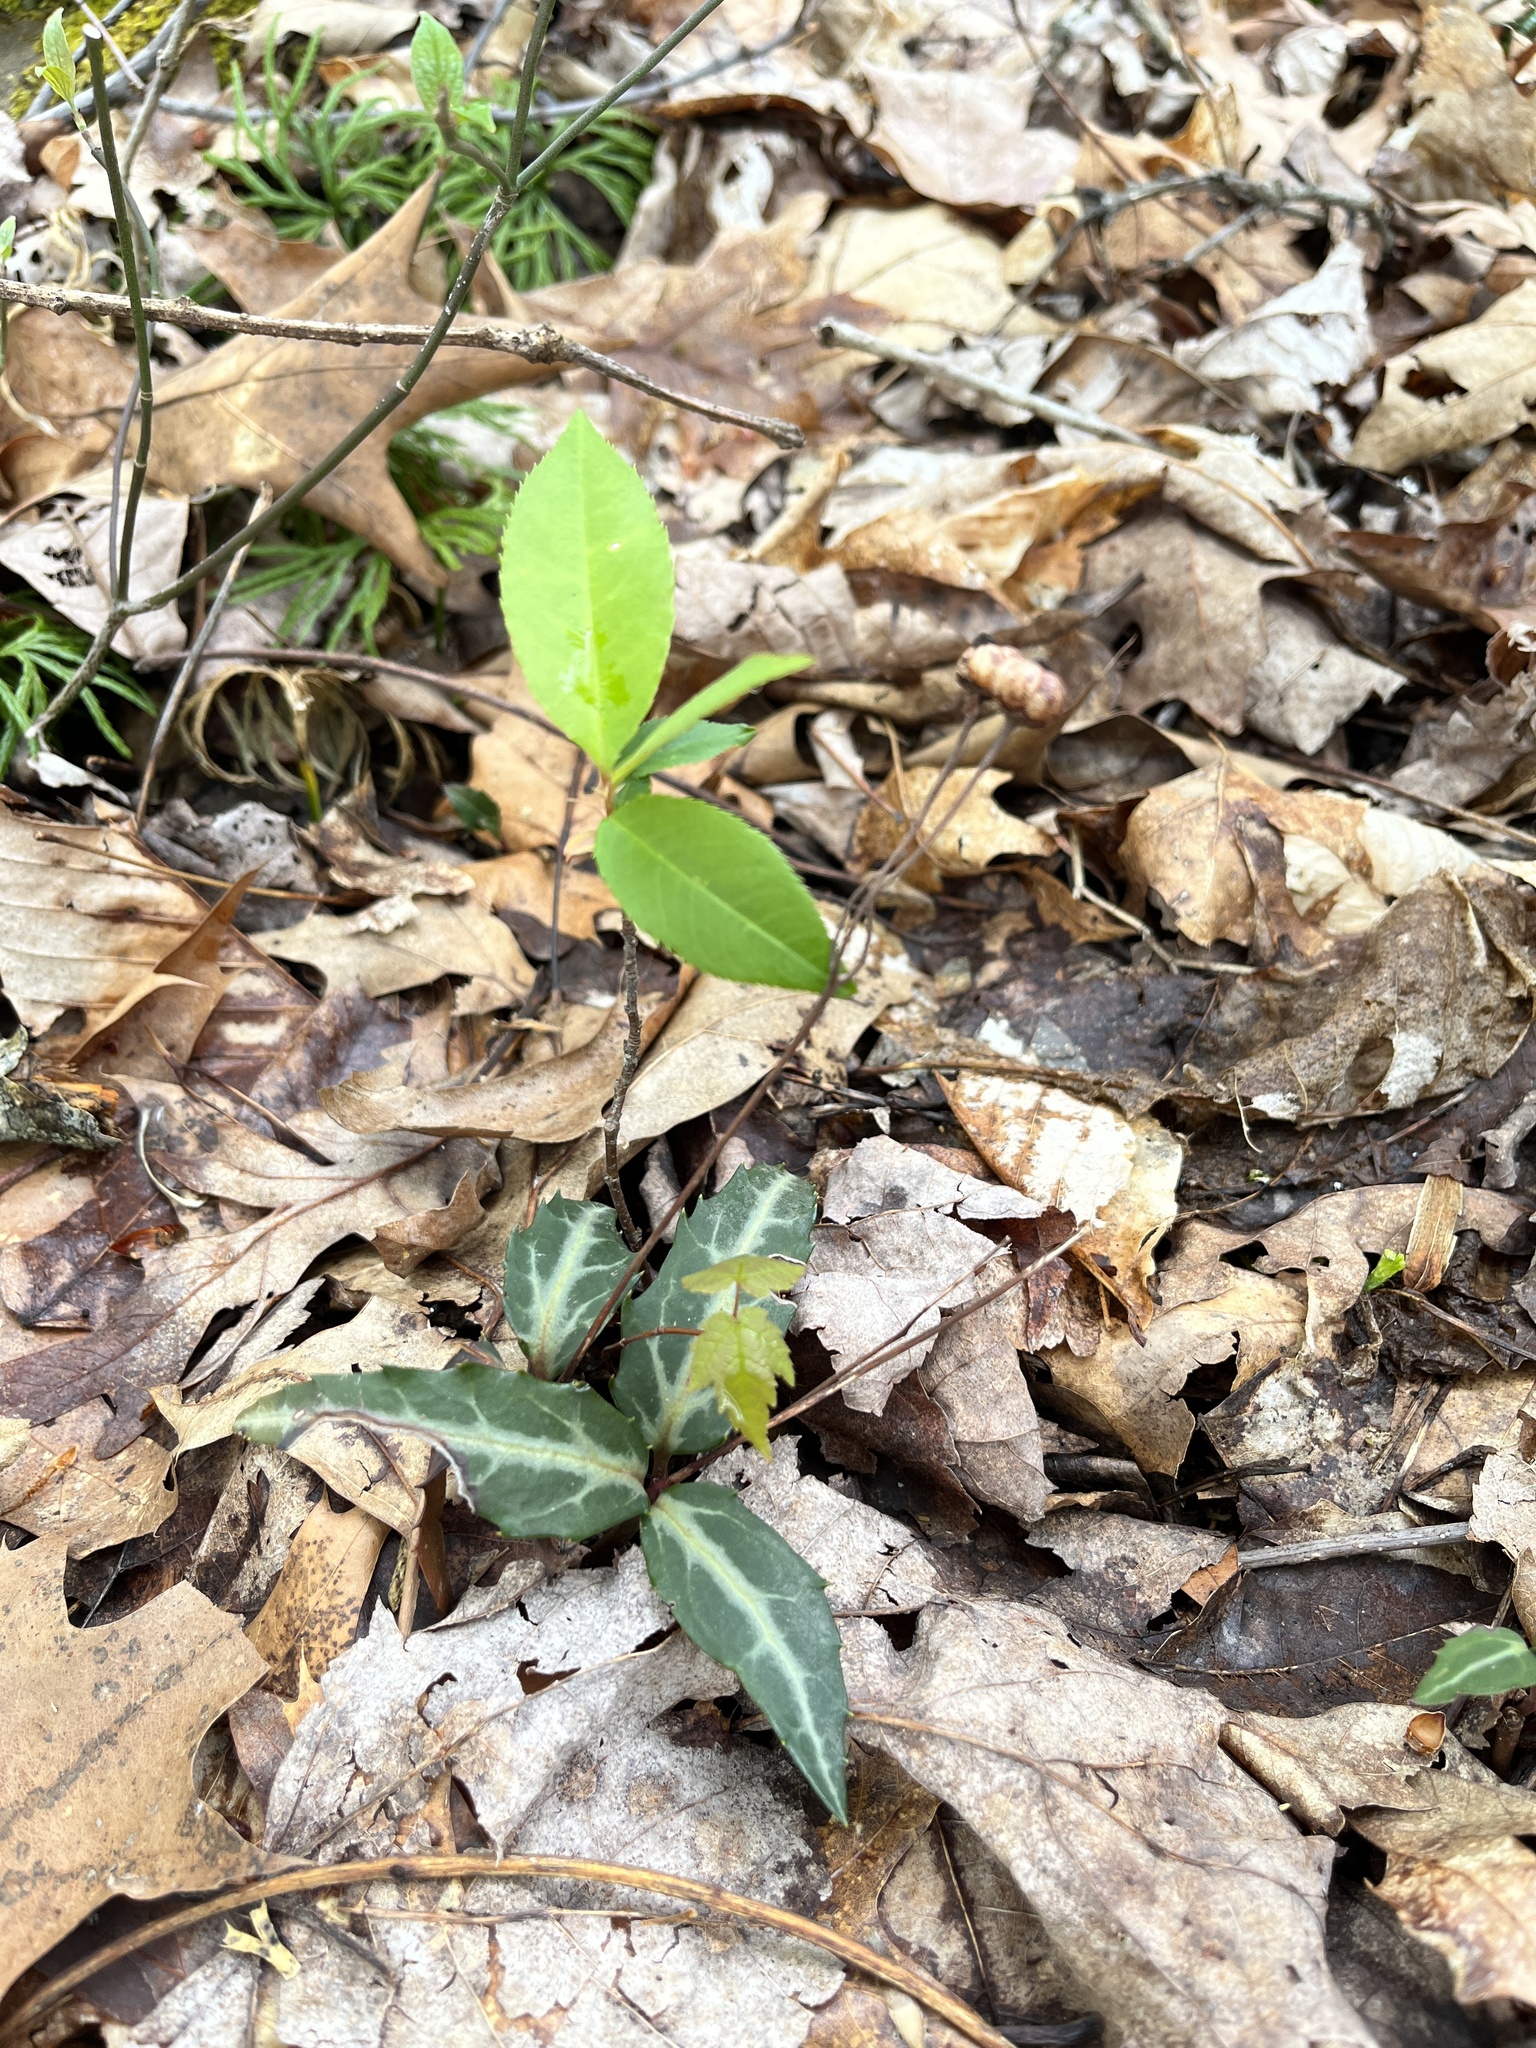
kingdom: Plantae
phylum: Tracheophyta
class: Magnoliopsida
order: Ericales
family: Ericaceae
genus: Chimaphila
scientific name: Chimaphila maculata
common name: Spotted pipsissewa
